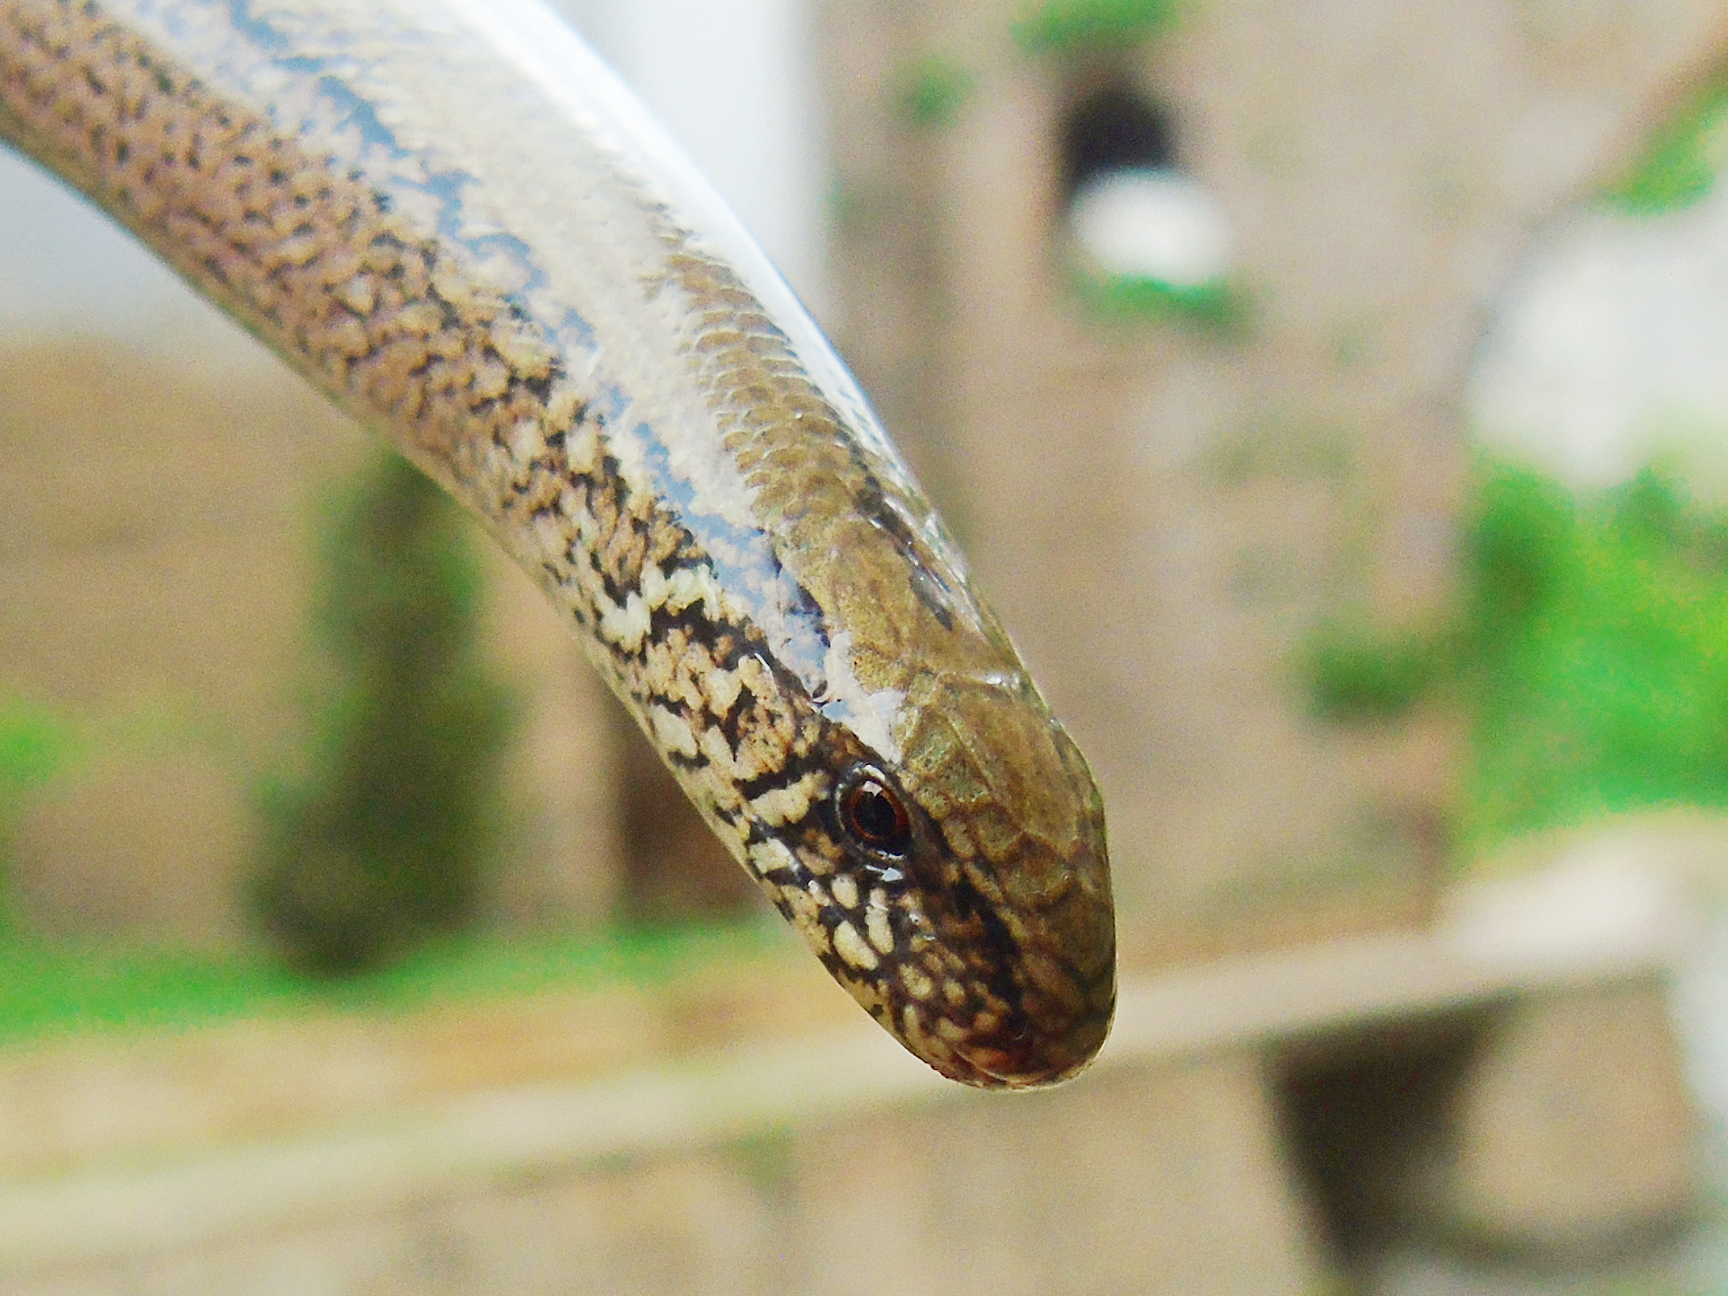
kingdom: Animalia
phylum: Chordata
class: Squamata
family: Anguidae
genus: Anguis
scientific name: Anguis fragilis
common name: Slow worm
